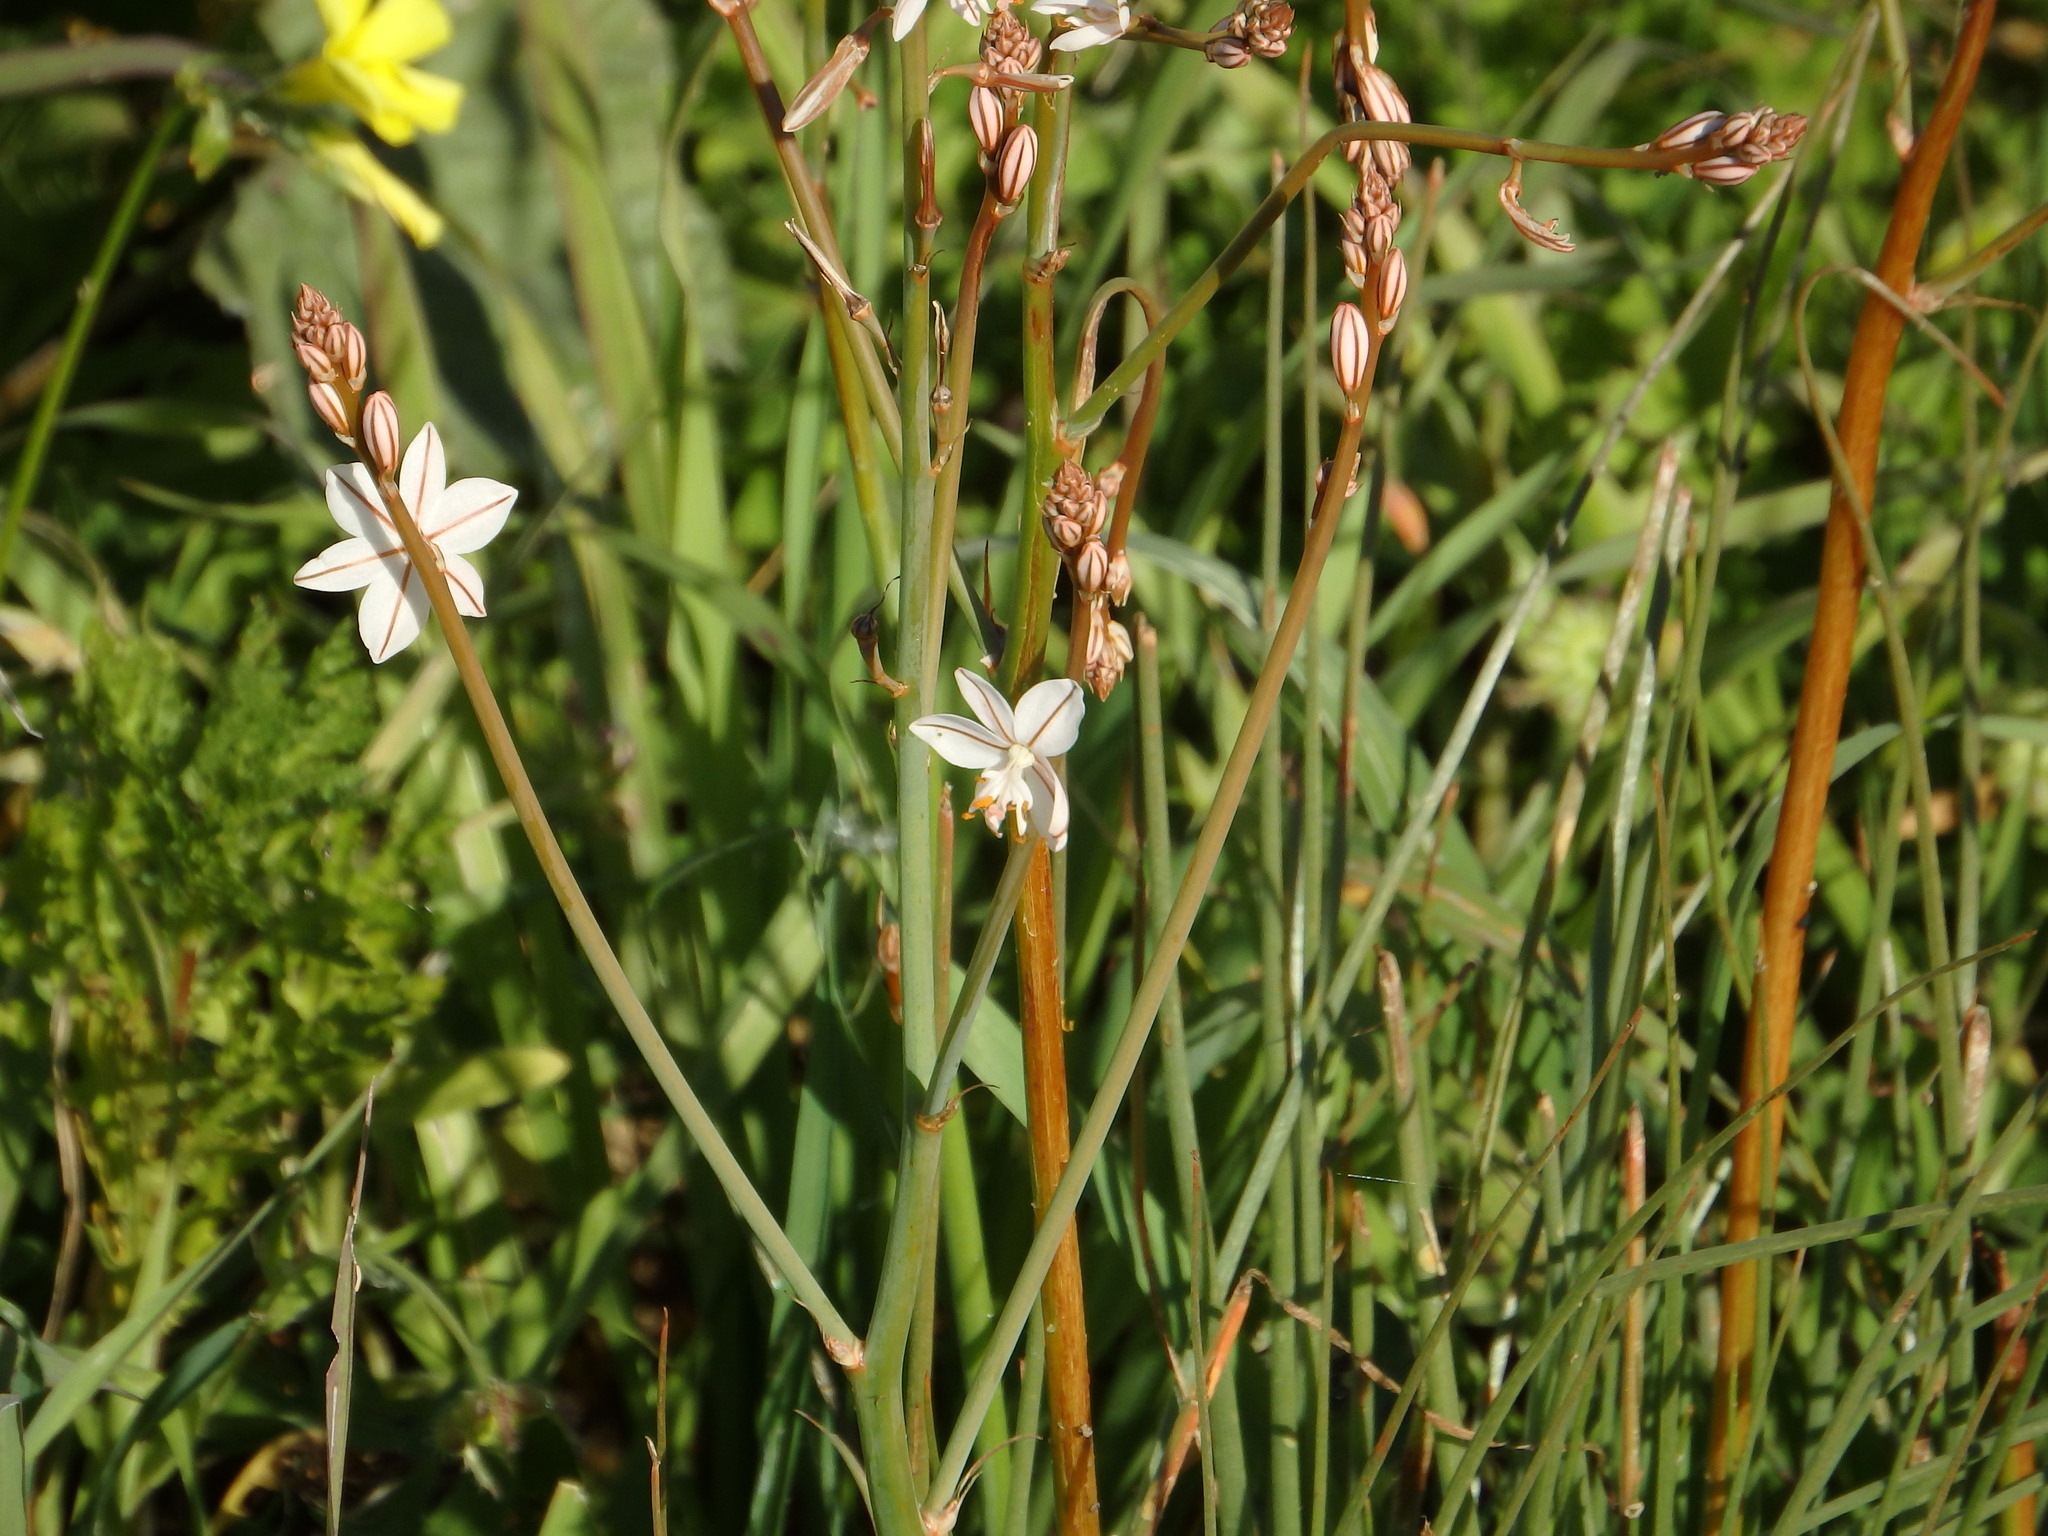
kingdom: Plantae
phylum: Tracheophyta
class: Liliopsida
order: Asparagales
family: Asphodelaceae
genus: Asphodelus
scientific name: Asphodelus fistulosus
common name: Onionweed
